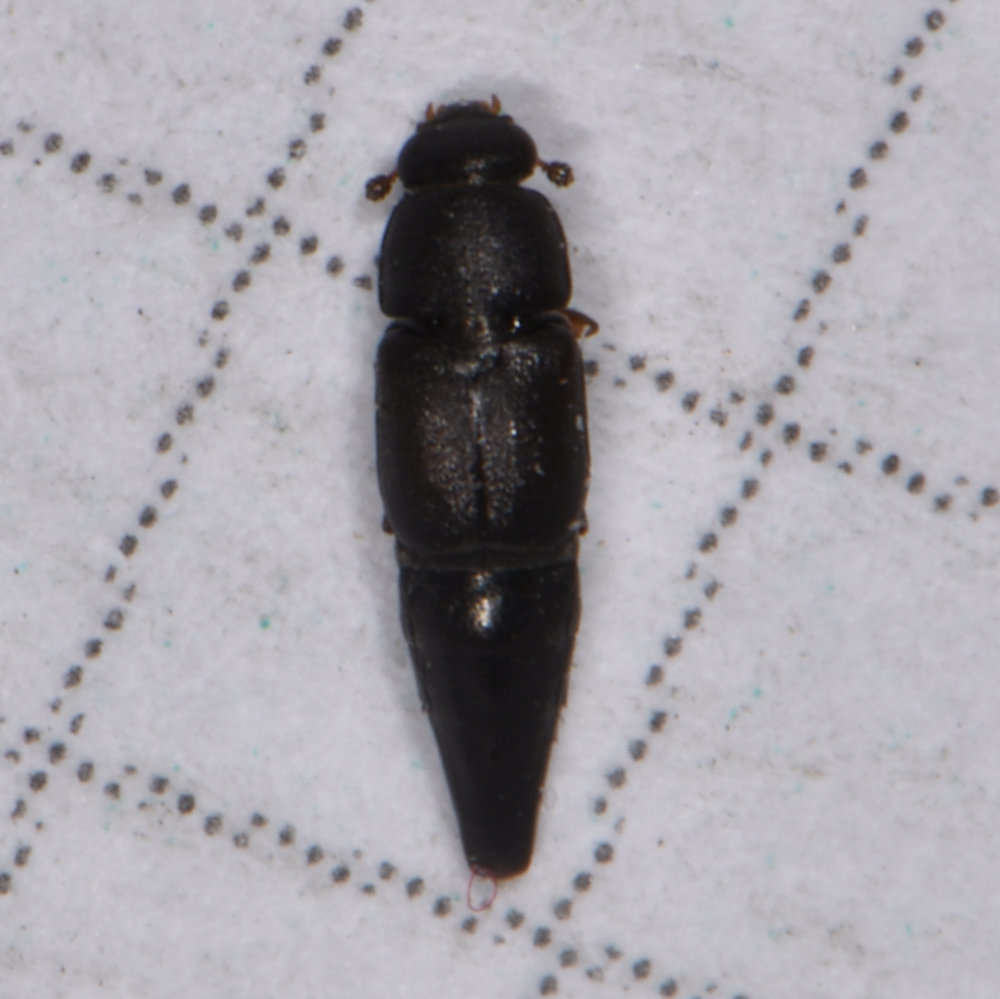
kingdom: Animalia
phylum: Arthropoda
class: Insecta
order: Coleoptera
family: Nitidulidae
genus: Conotelus
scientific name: Conotelus obscurus
